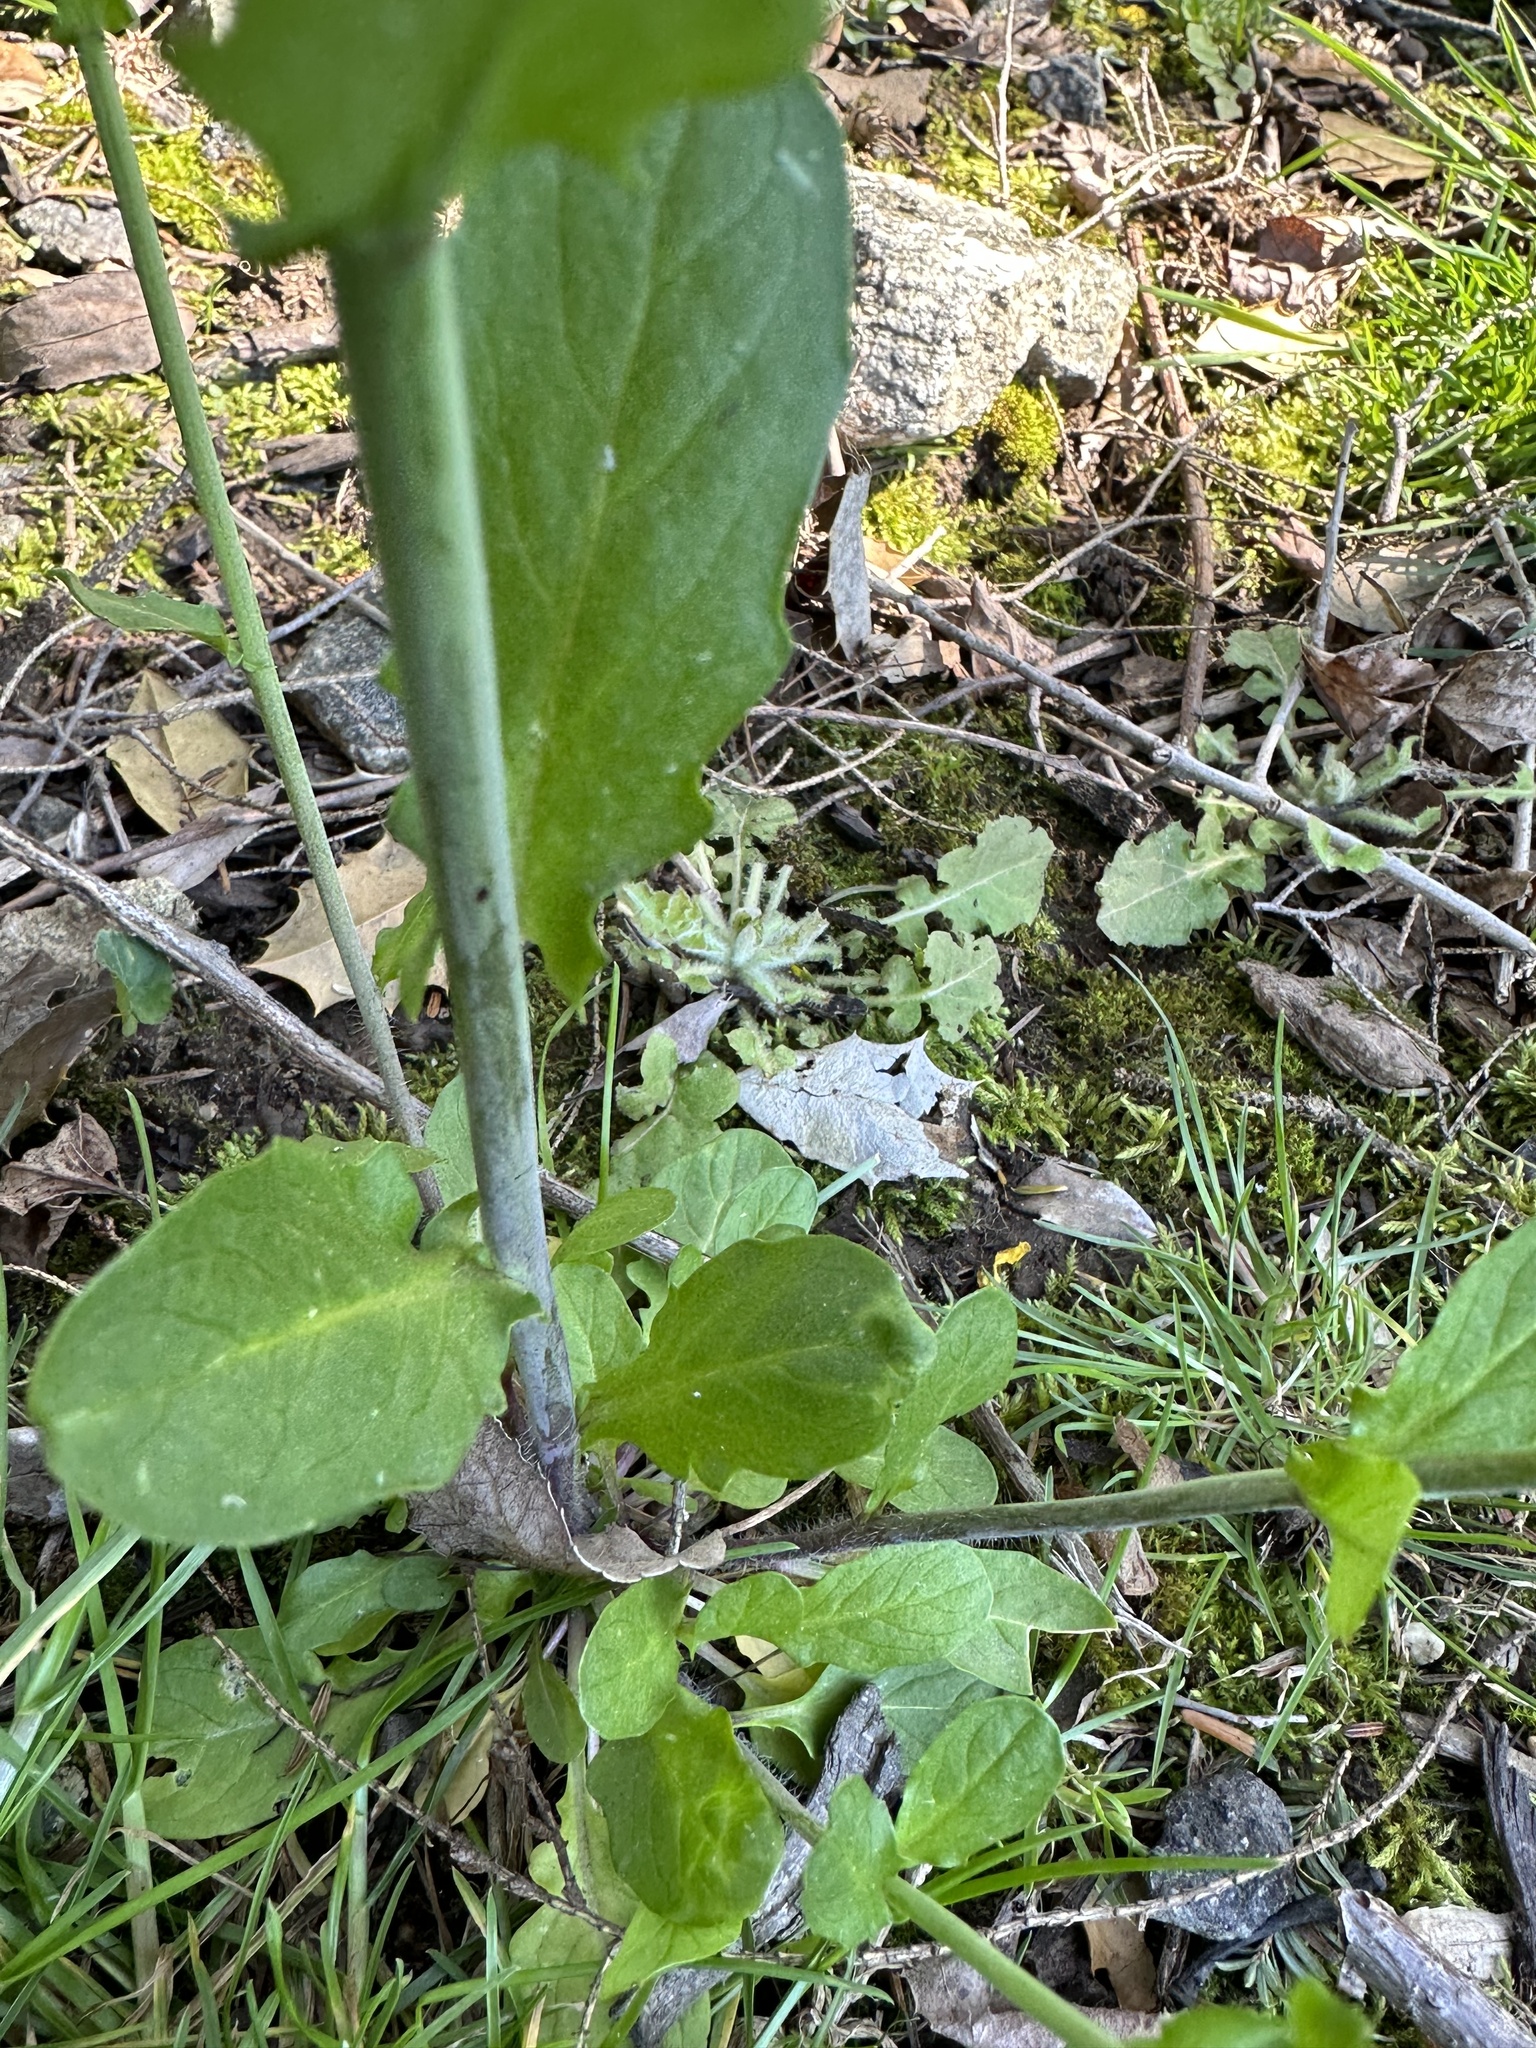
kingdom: Plantae
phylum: Tracheophyta
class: Magnoliopsida
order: Brassicales
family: Brassicaceae
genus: Mummenhoffia
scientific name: Mummenhoffia alliacea
